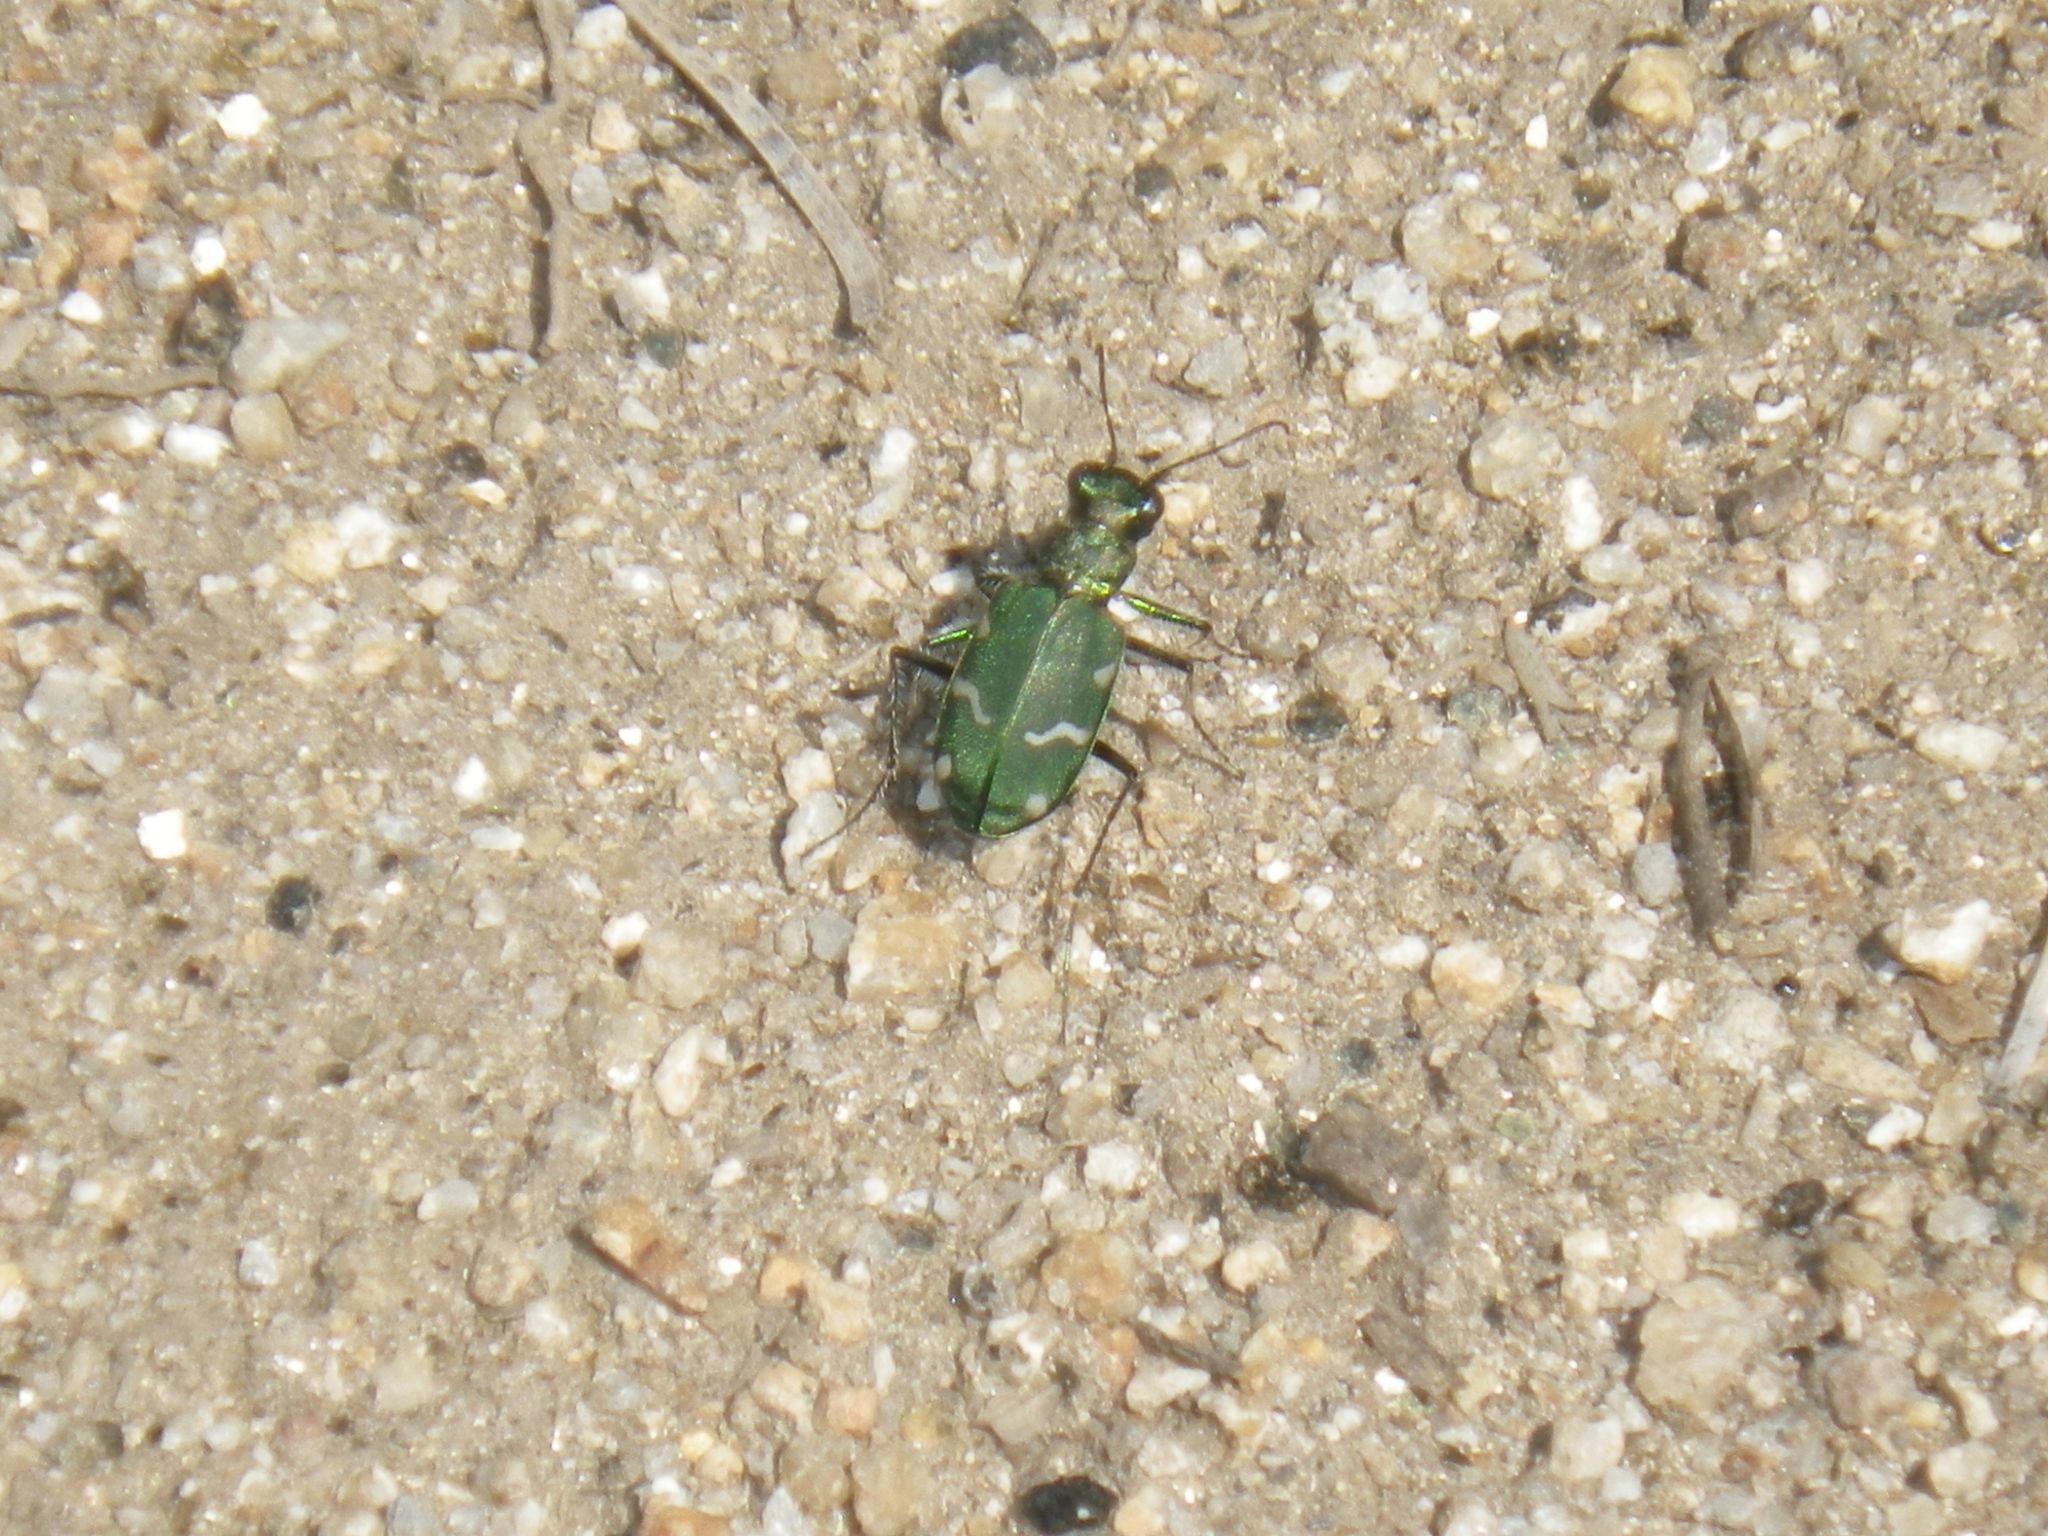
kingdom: Animalia
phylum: Arthropoda
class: Insecta
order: Coleoptera
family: Carabidae
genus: Cicindela
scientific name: Cicindela longilabris
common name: Boreal long-lipped tiger beetle
